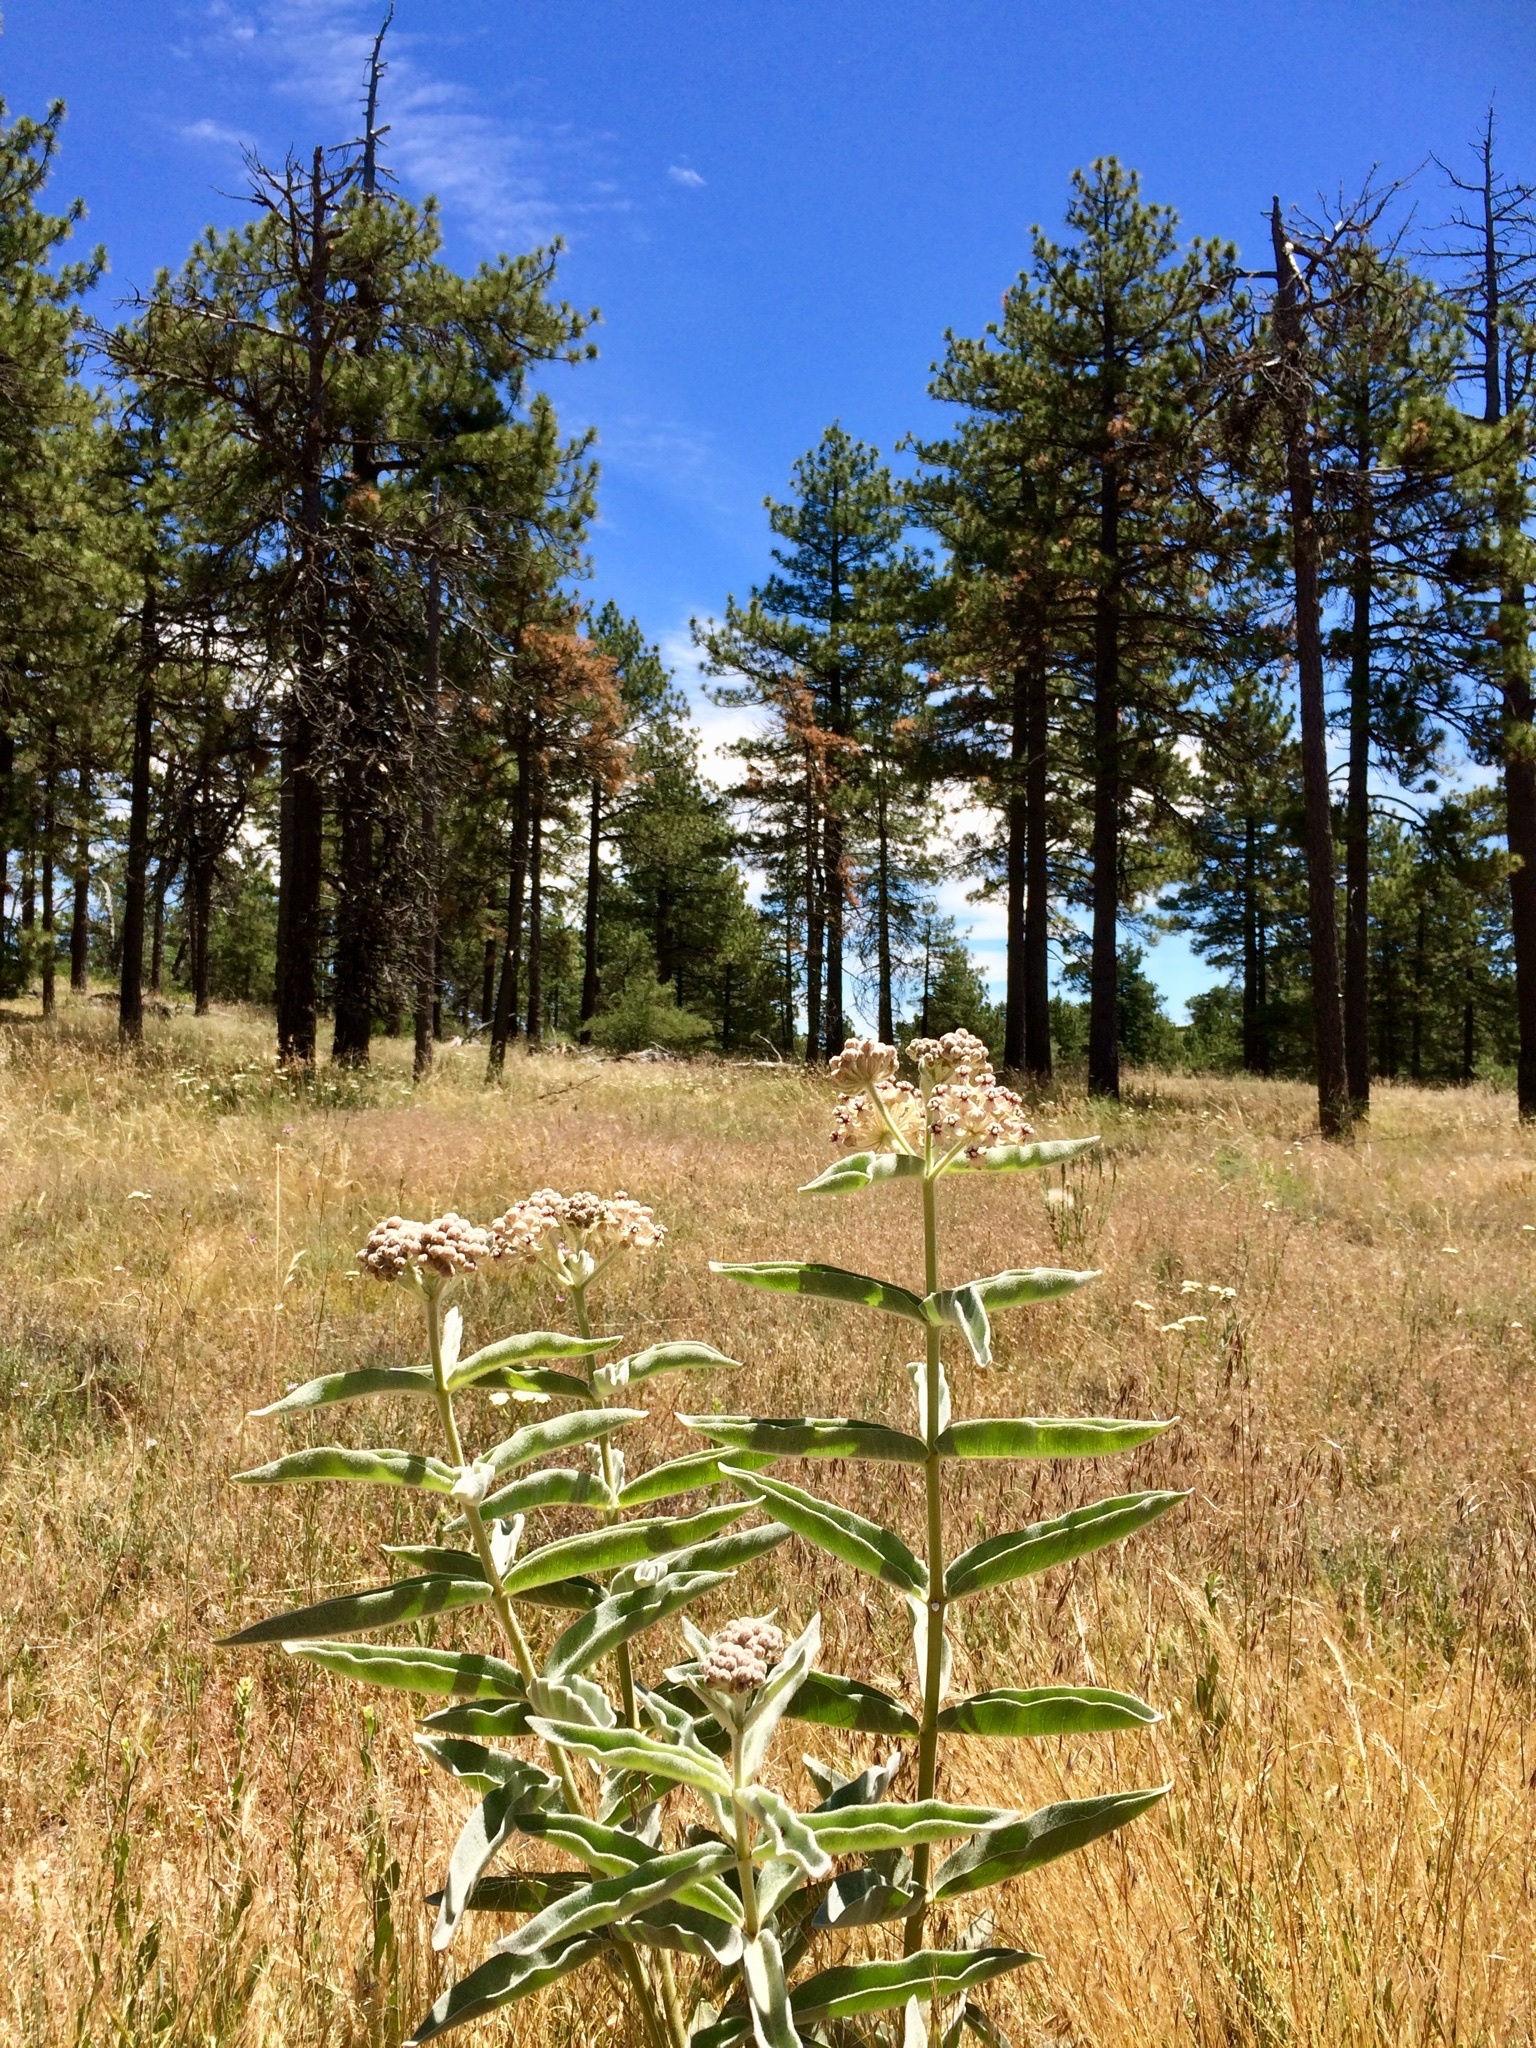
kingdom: Plantae
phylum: Tracheophyta
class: Magnoliopsida
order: Gentianales
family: Apocynaceae
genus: Asclepias
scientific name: Asclepias eriocarpa
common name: Indian milkweed
